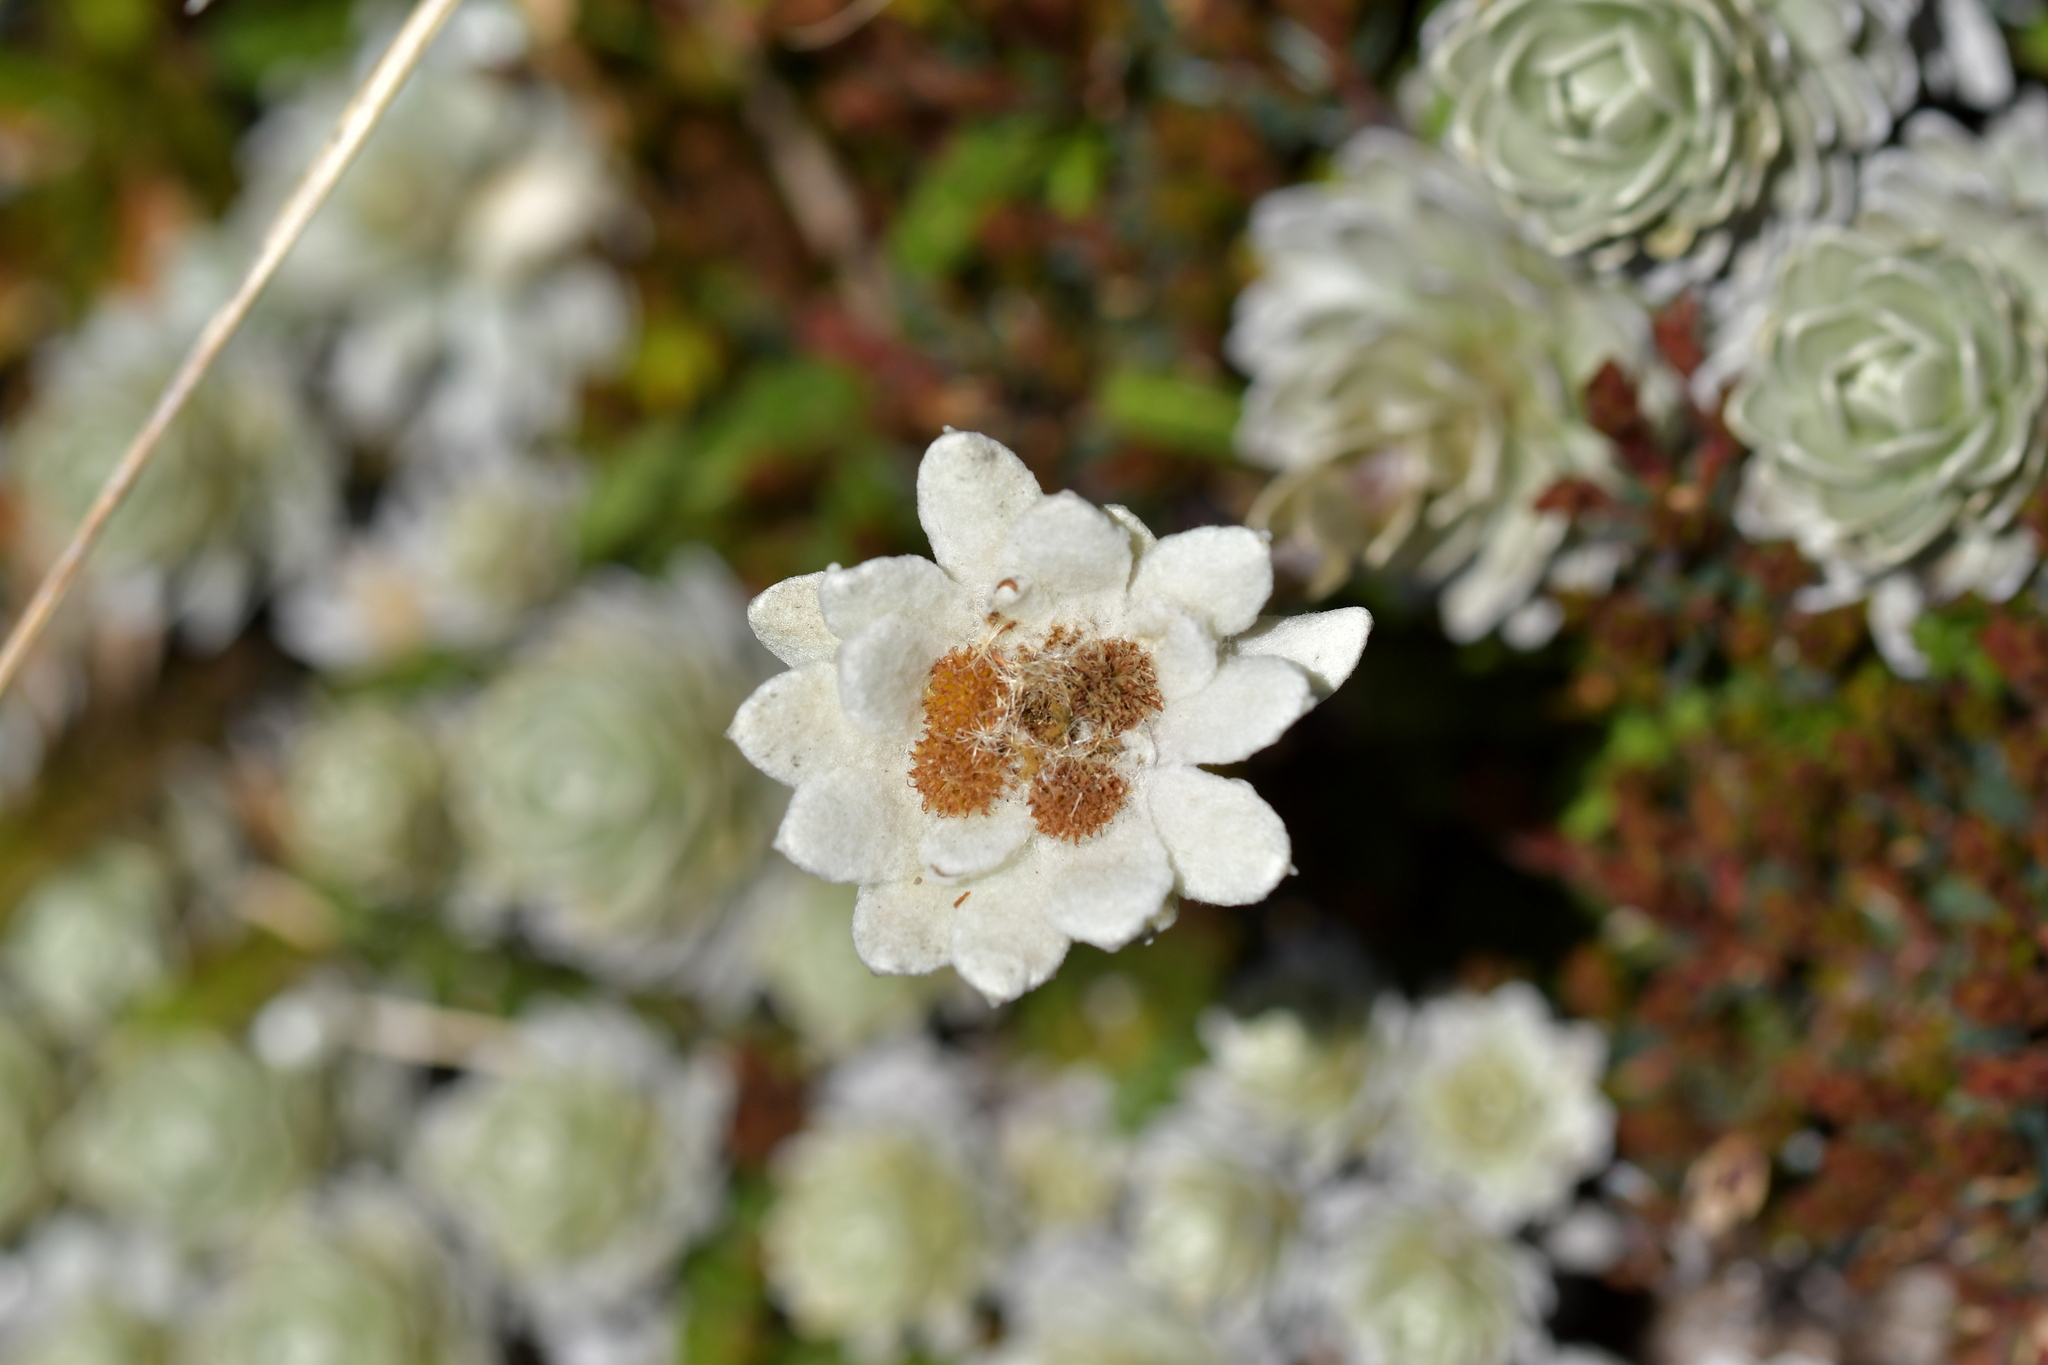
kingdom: Plantae
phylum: Tracheophyta
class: Magnoliopsida
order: Asterales
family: Asteraceae
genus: Leucogenes
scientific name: Leucogenes leontopodium
